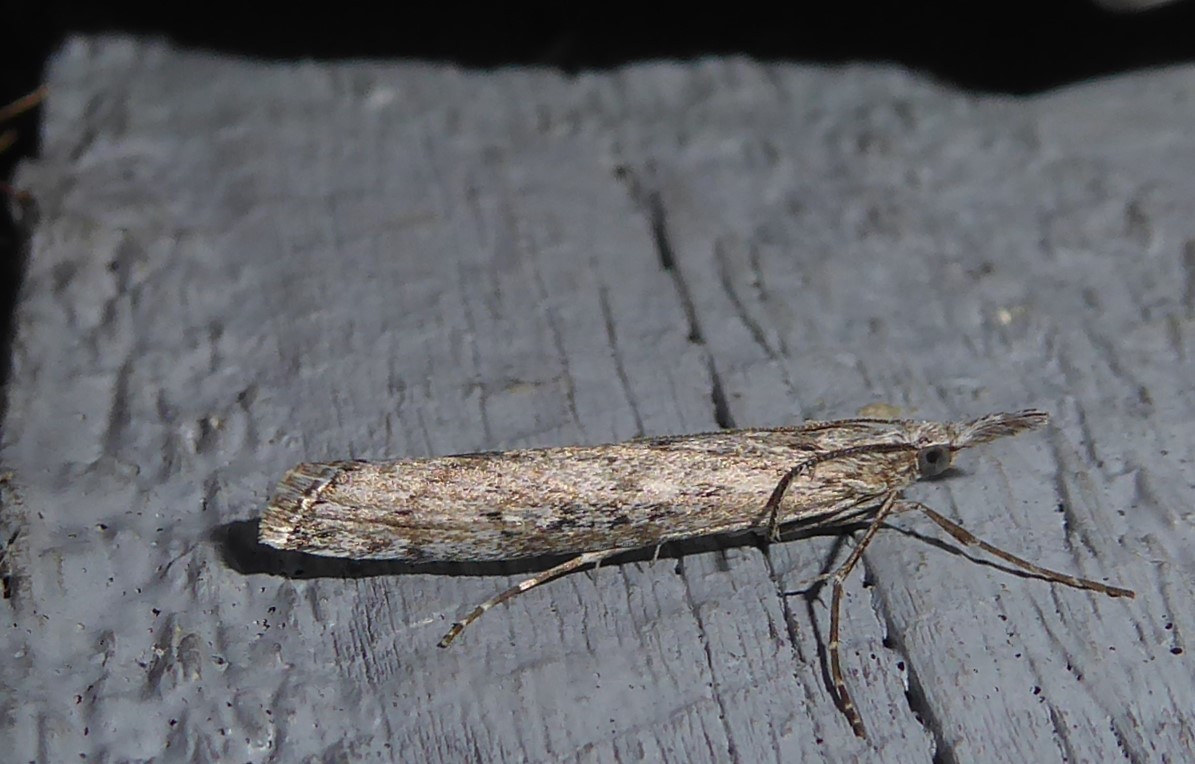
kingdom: Animalia
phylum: Arthropoda
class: Insecta
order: Lepidoptera
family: Crambidae
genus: Orocrambus
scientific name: Orocrambus cyclopicus
